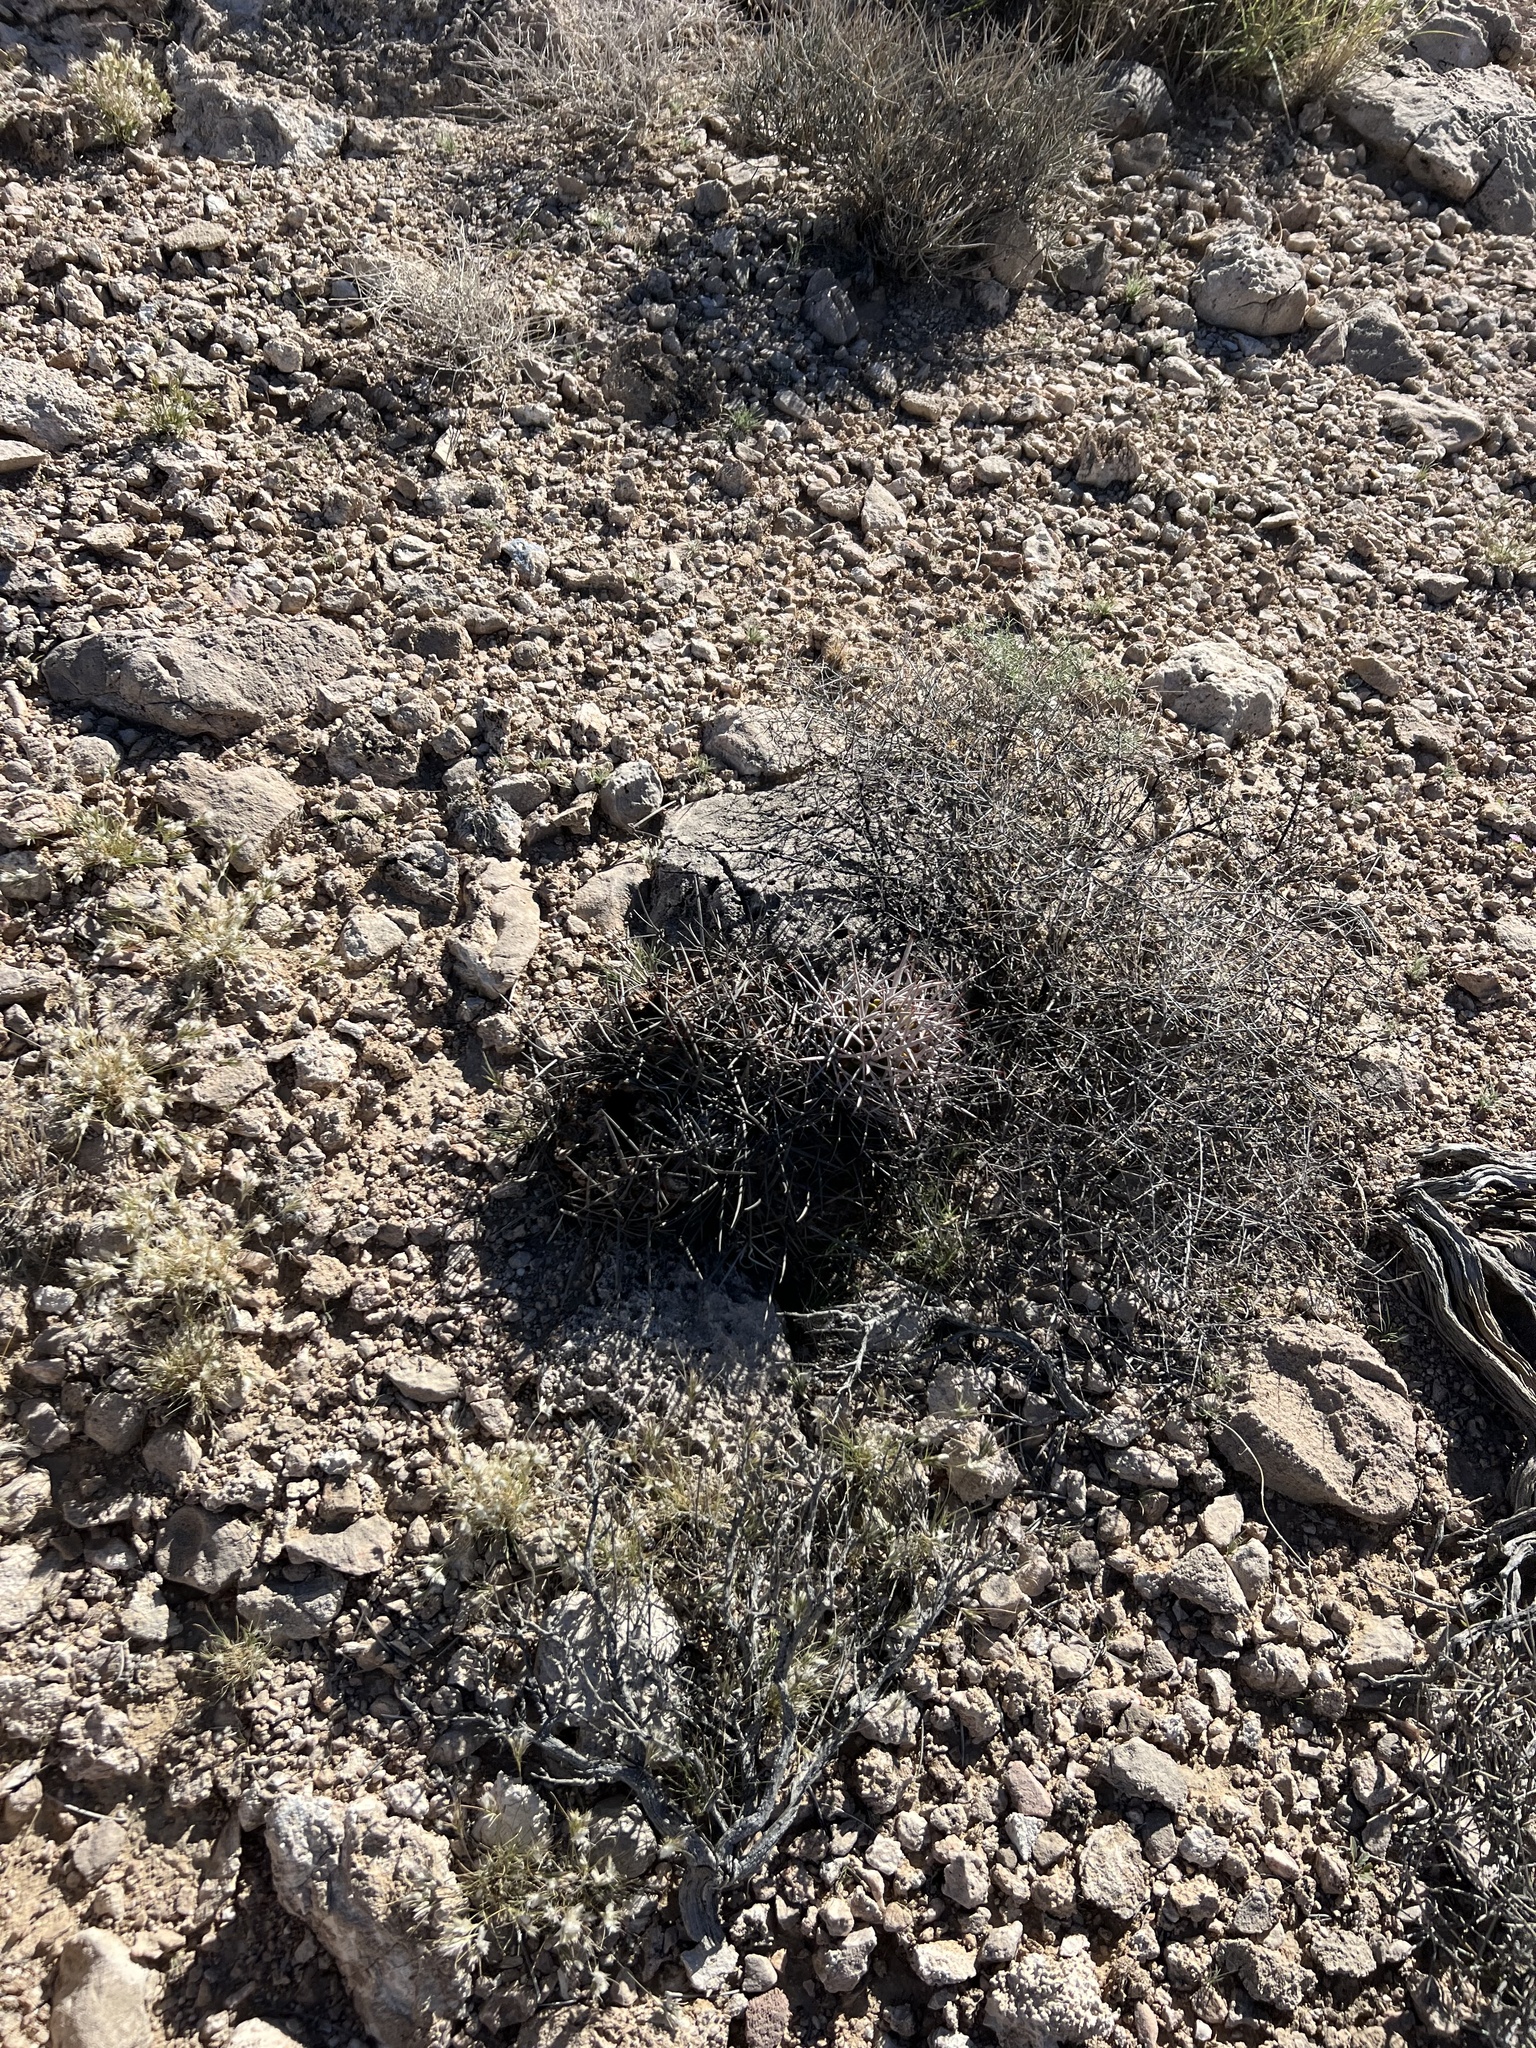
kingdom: Plantae
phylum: Tracheophyta
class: Magnoliopsida
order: Caryophyllales
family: Cactaceae
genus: Echinocactus
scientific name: Echinocactus polycephalus
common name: Cottontop cactus
